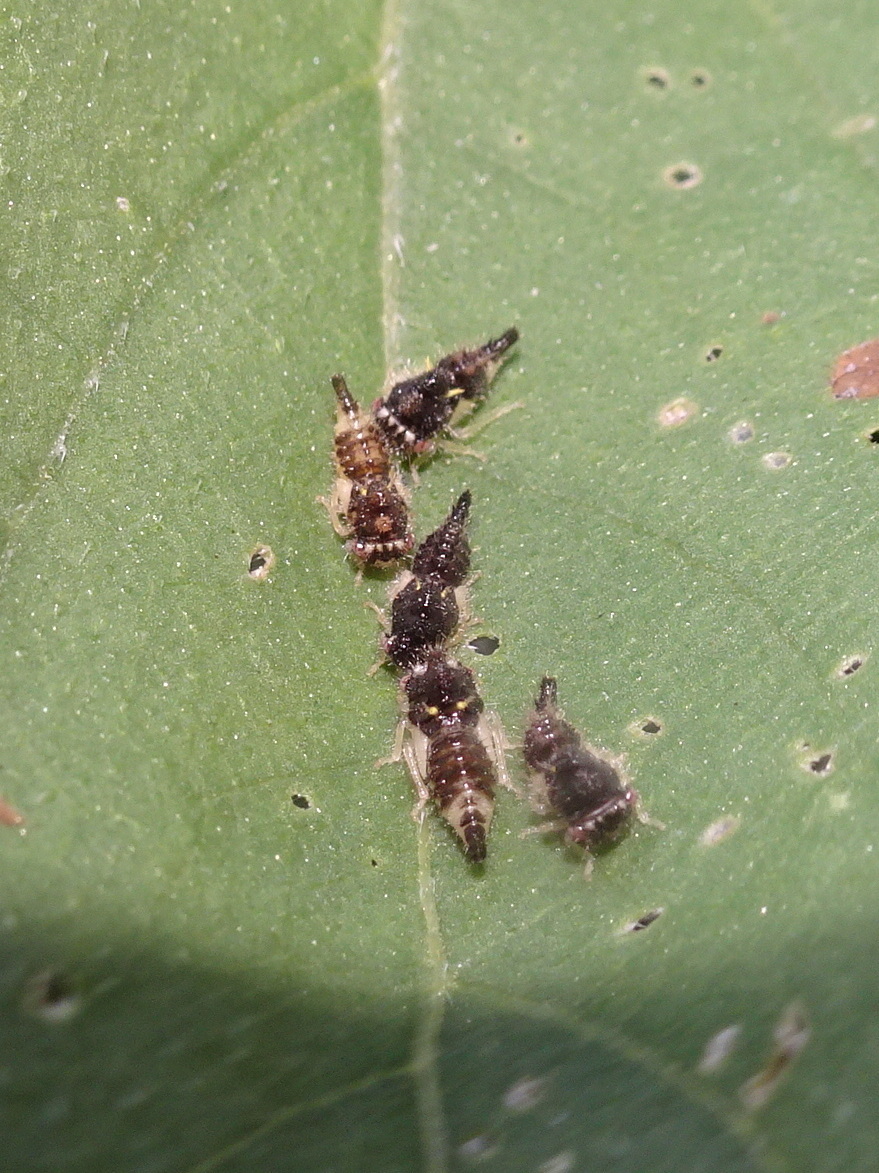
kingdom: Animalia
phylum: Arthropoda
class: Insecta
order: Hemiptera
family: Membracidae
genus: Entylia
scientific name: Entylia carinata
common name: Keeled treehopper
